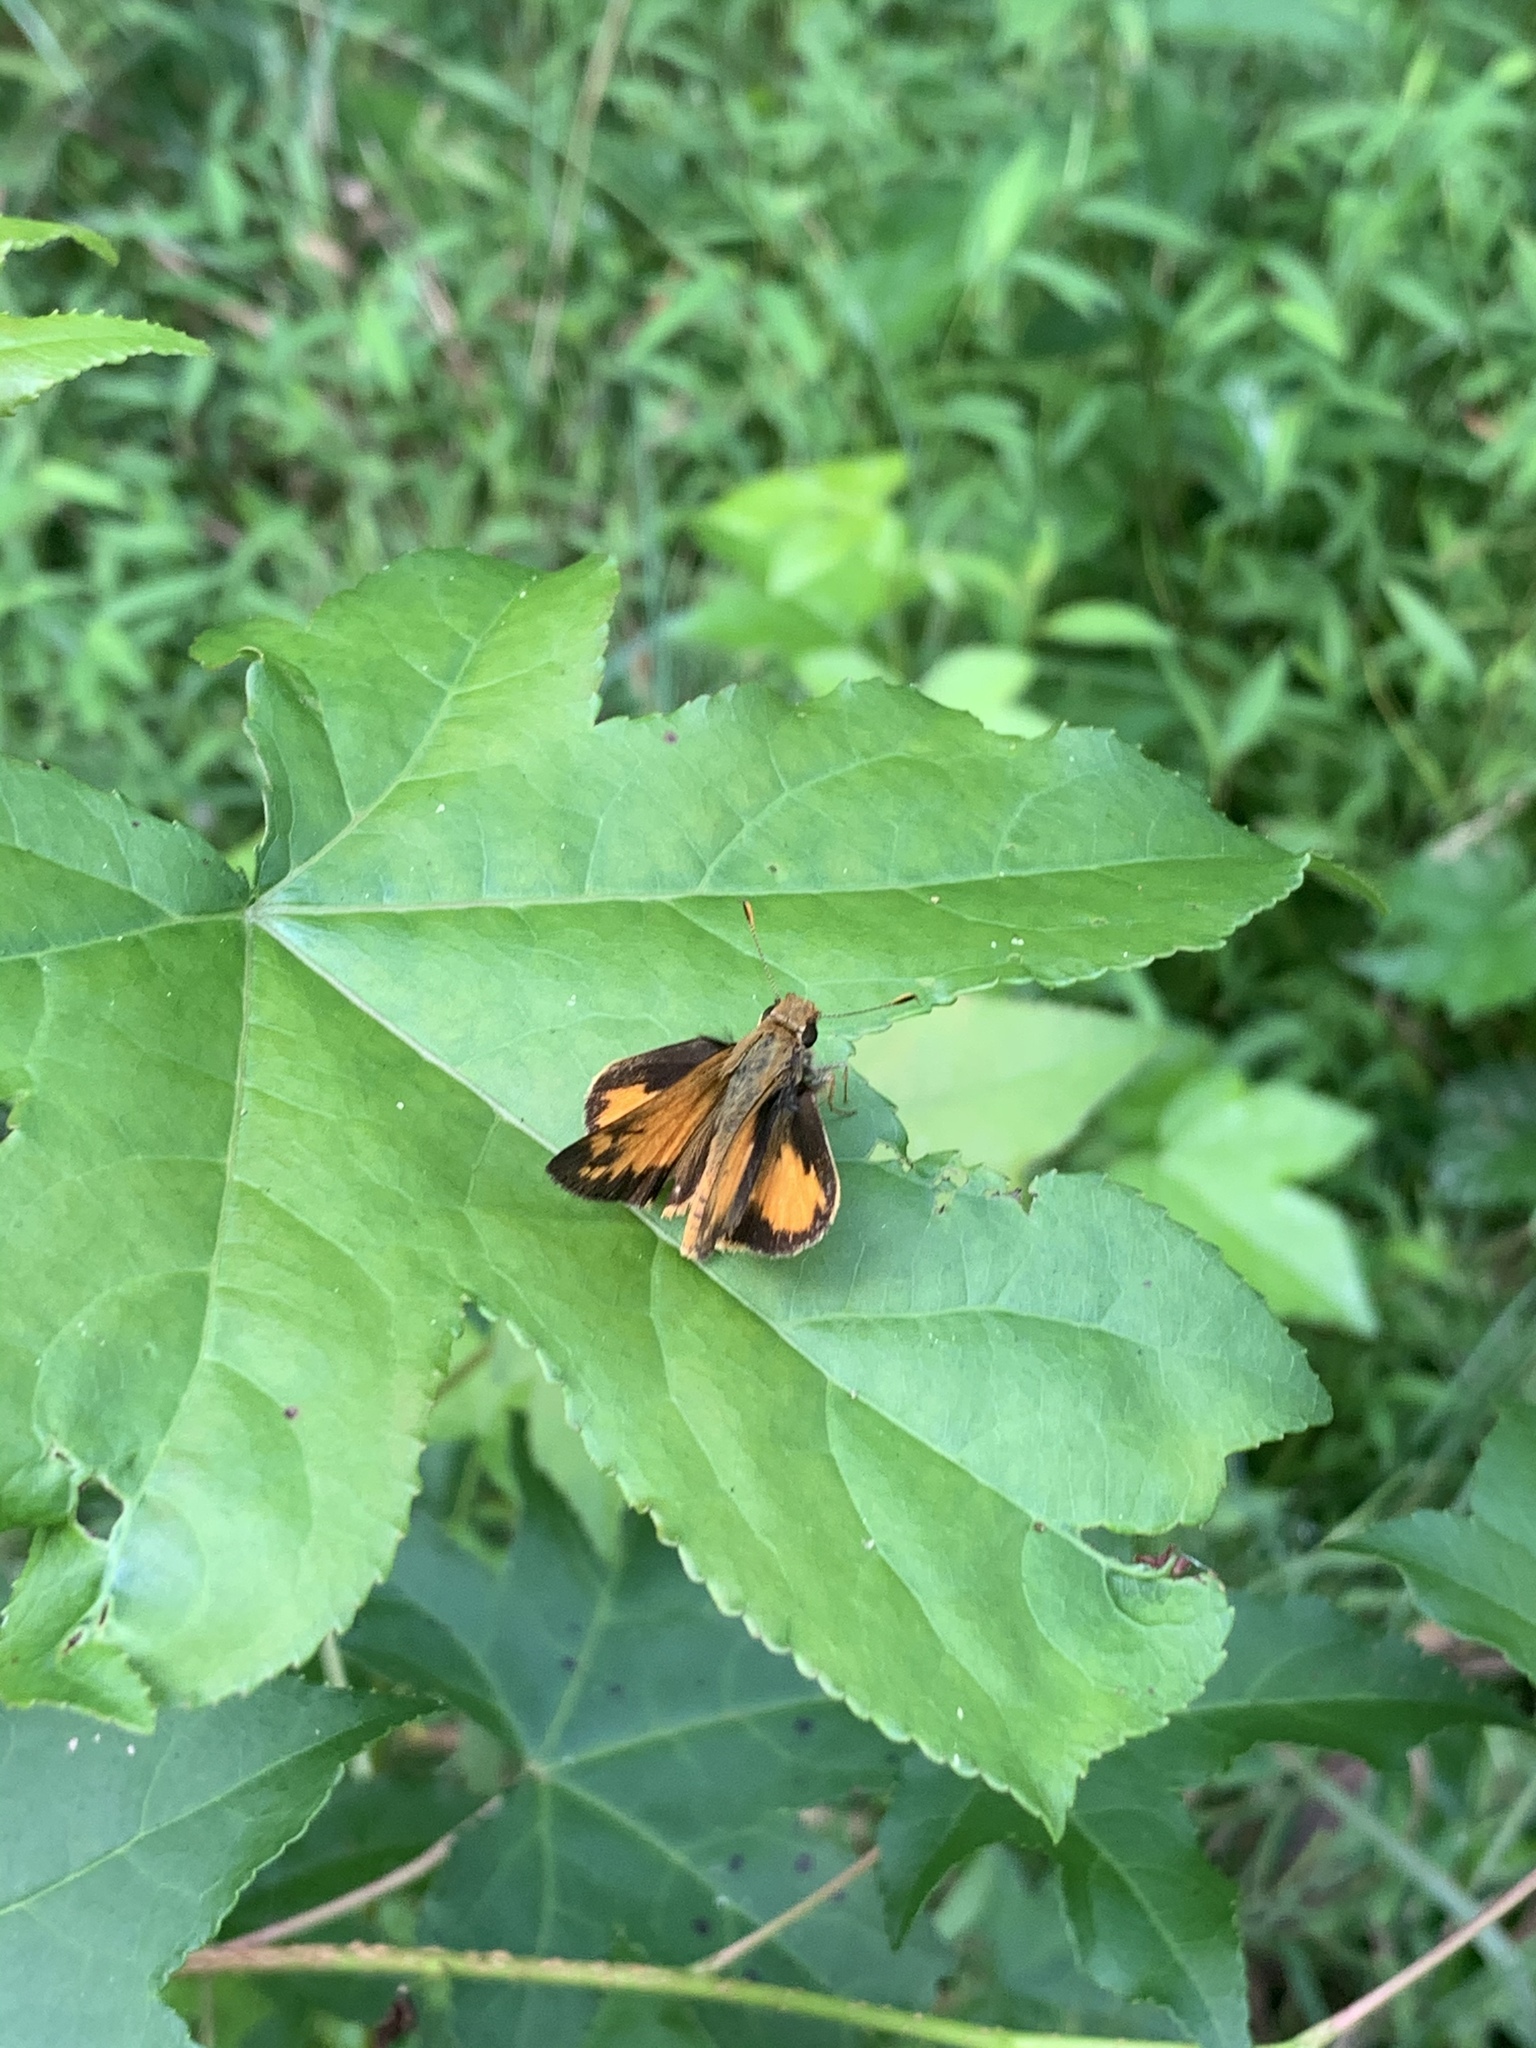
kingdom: Animalia
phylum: Arthropoda
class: Insecta
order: Lepidoptera
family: Hesperiidae
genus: Lon
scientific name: Lon zabulon
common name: Zabulon skipper
